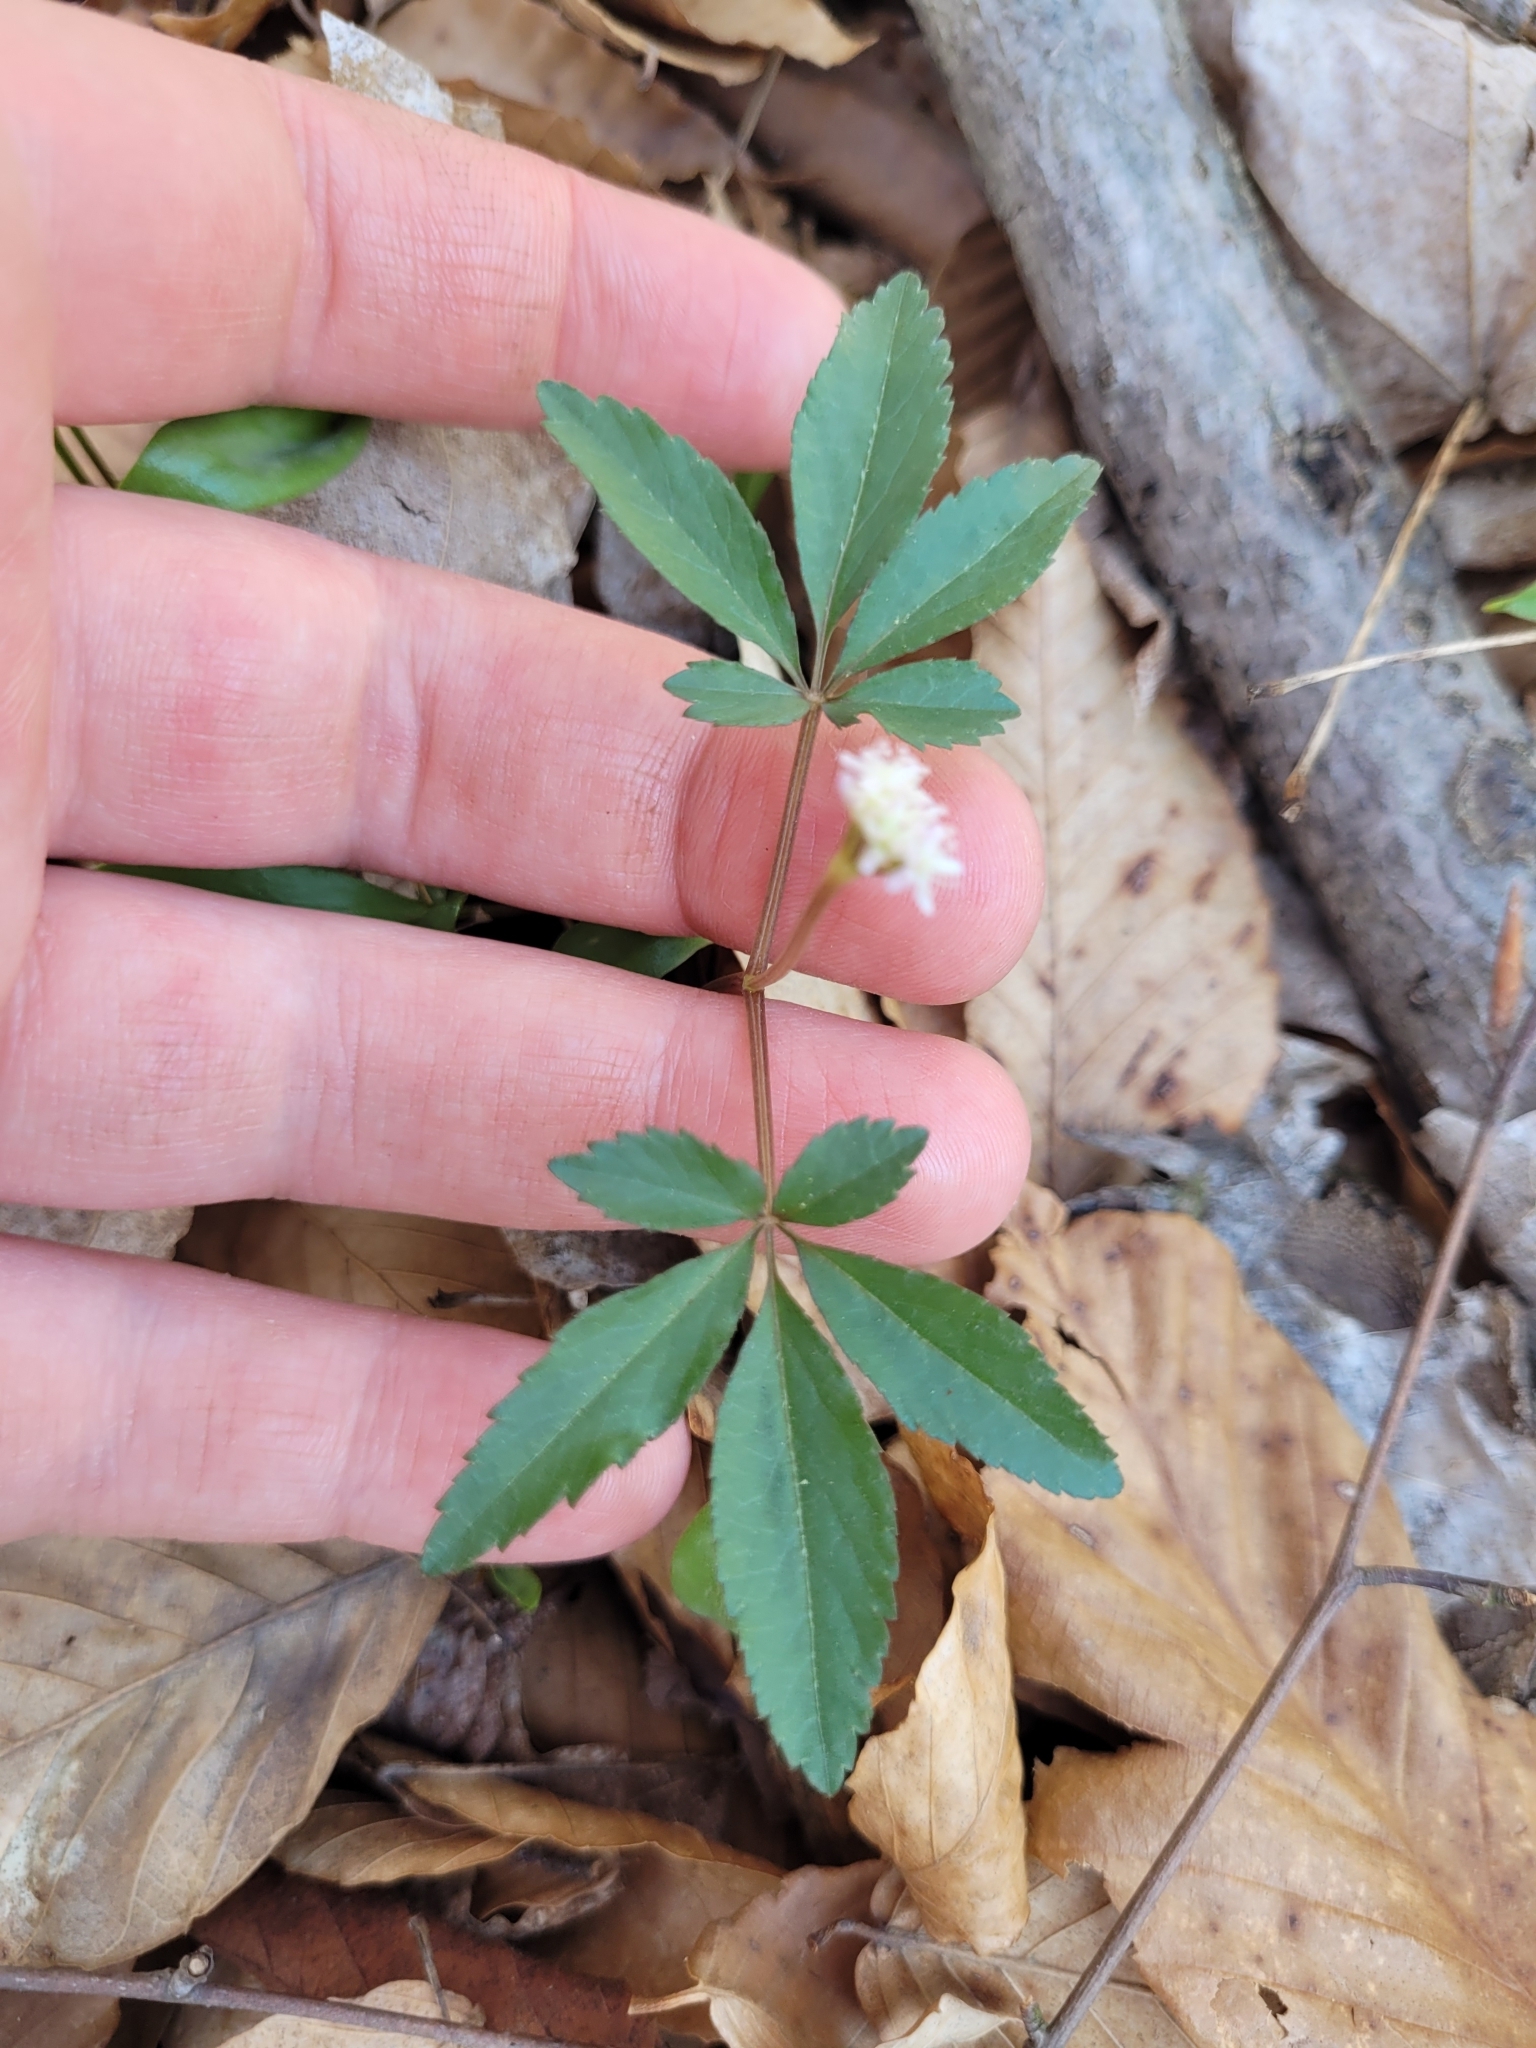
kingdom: Plantae
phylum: Tracheophyta
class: Magnoliopsida
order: Apiales
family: Araliaceae
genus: Panax
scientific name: Panax trifolius
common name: Dwarf ginseng
